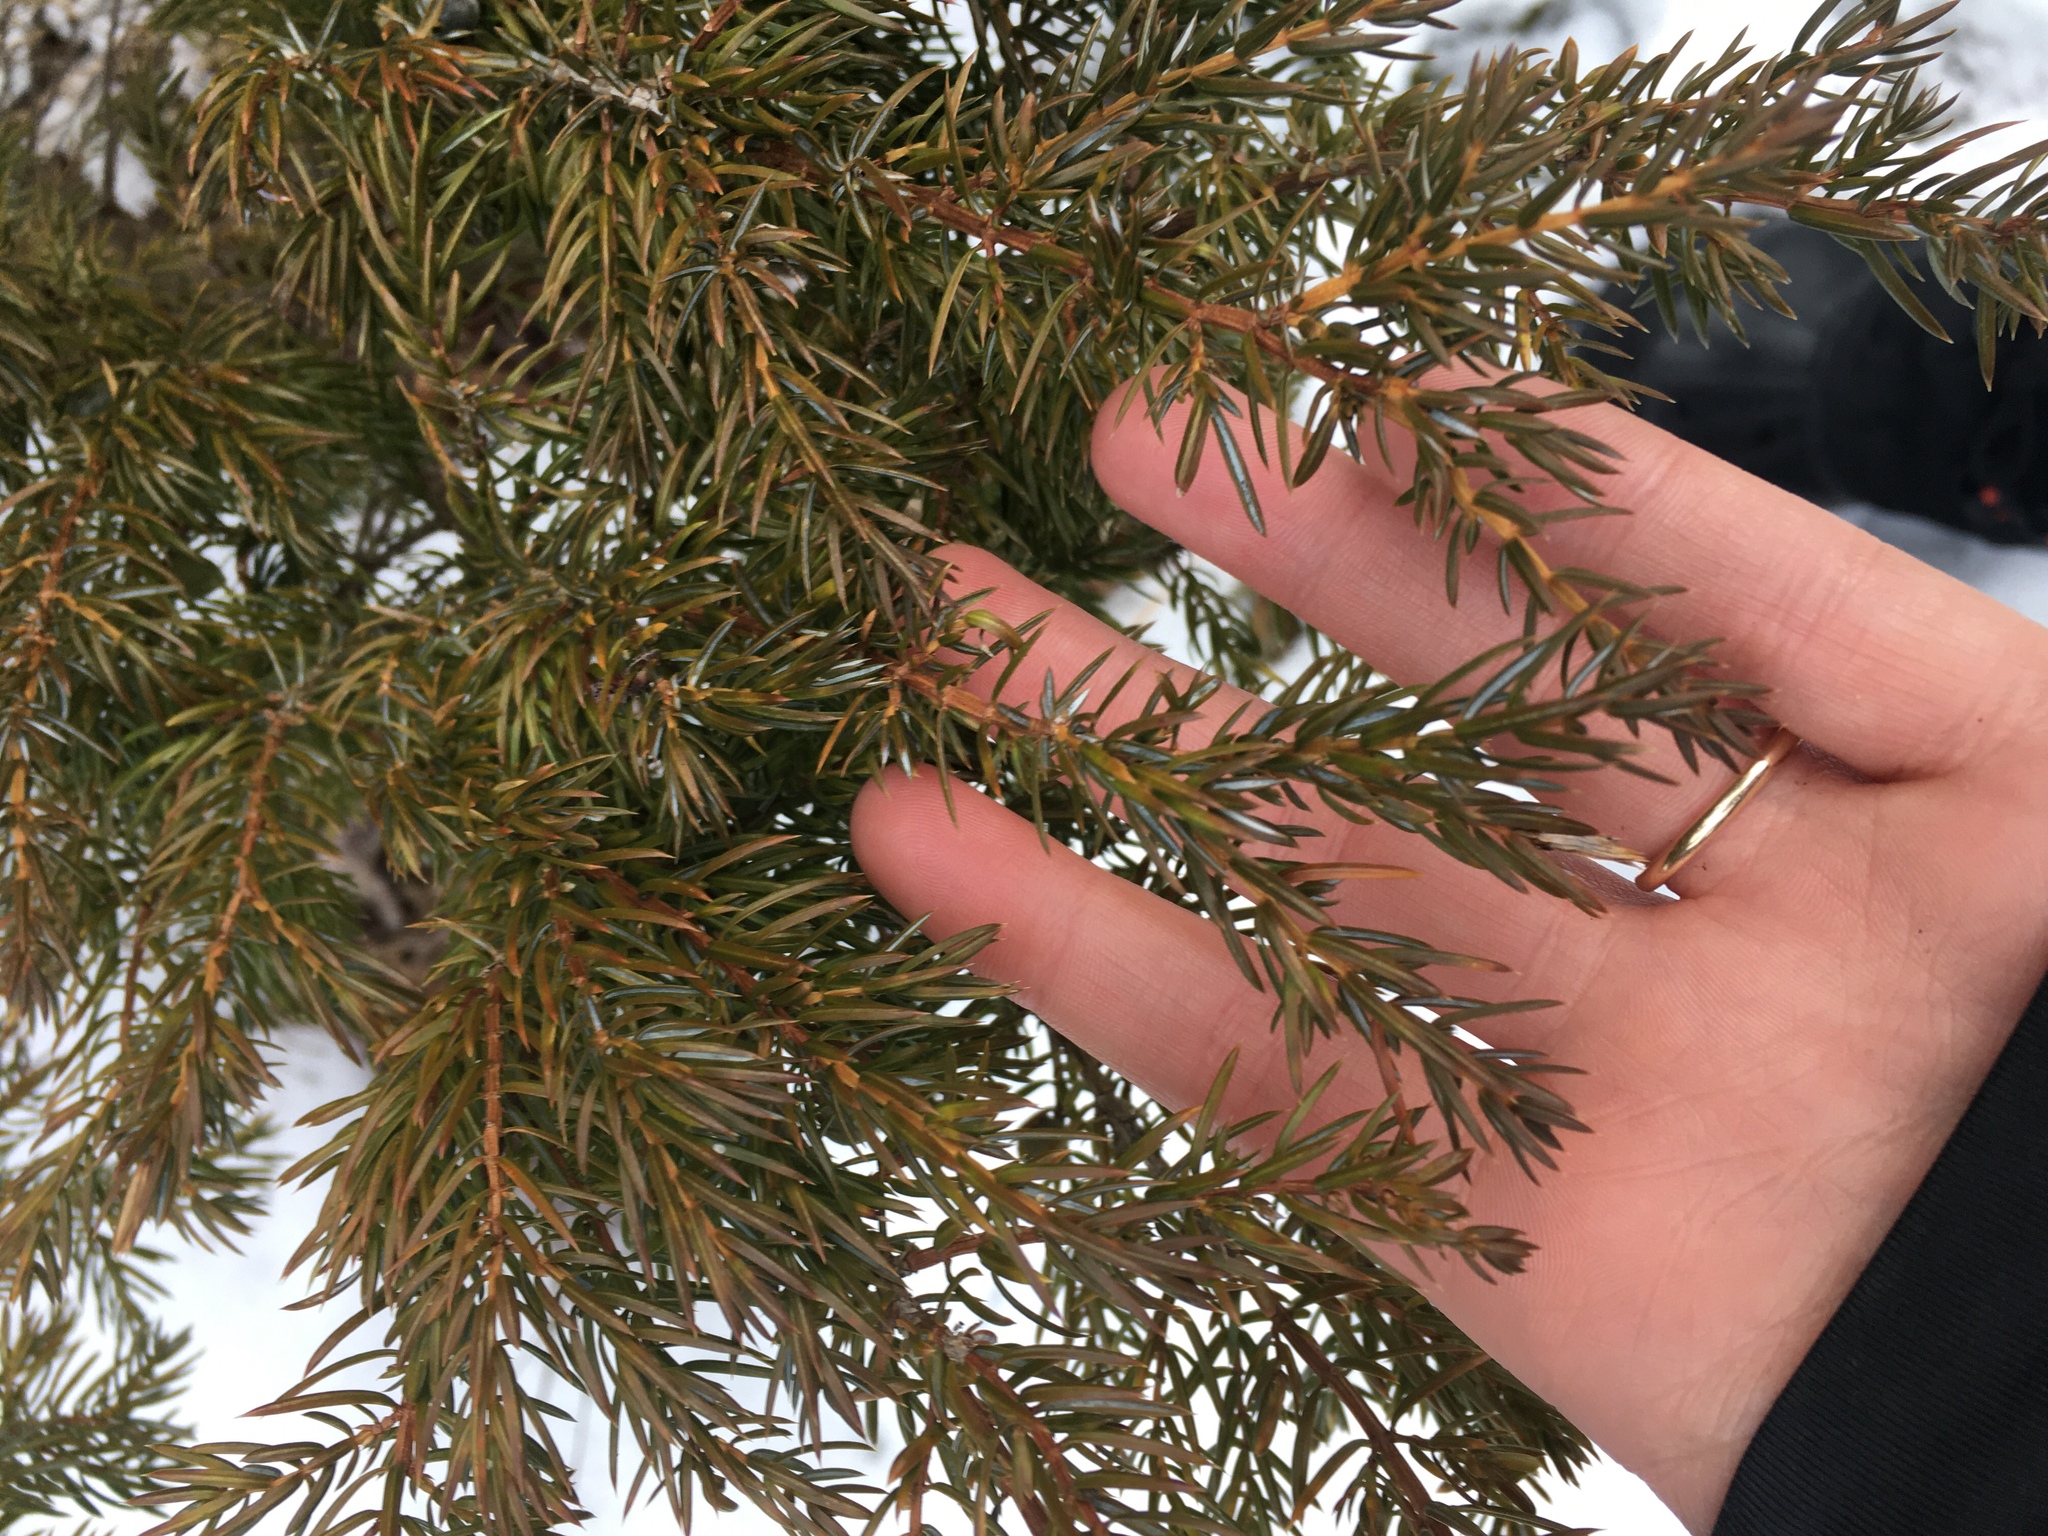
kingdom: Plantae
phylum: Tracheophyta
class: Pinopsida
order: Pinales
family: Cupressaceae
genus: Juniperus
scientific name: Juniperus communis
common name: Common juniper
